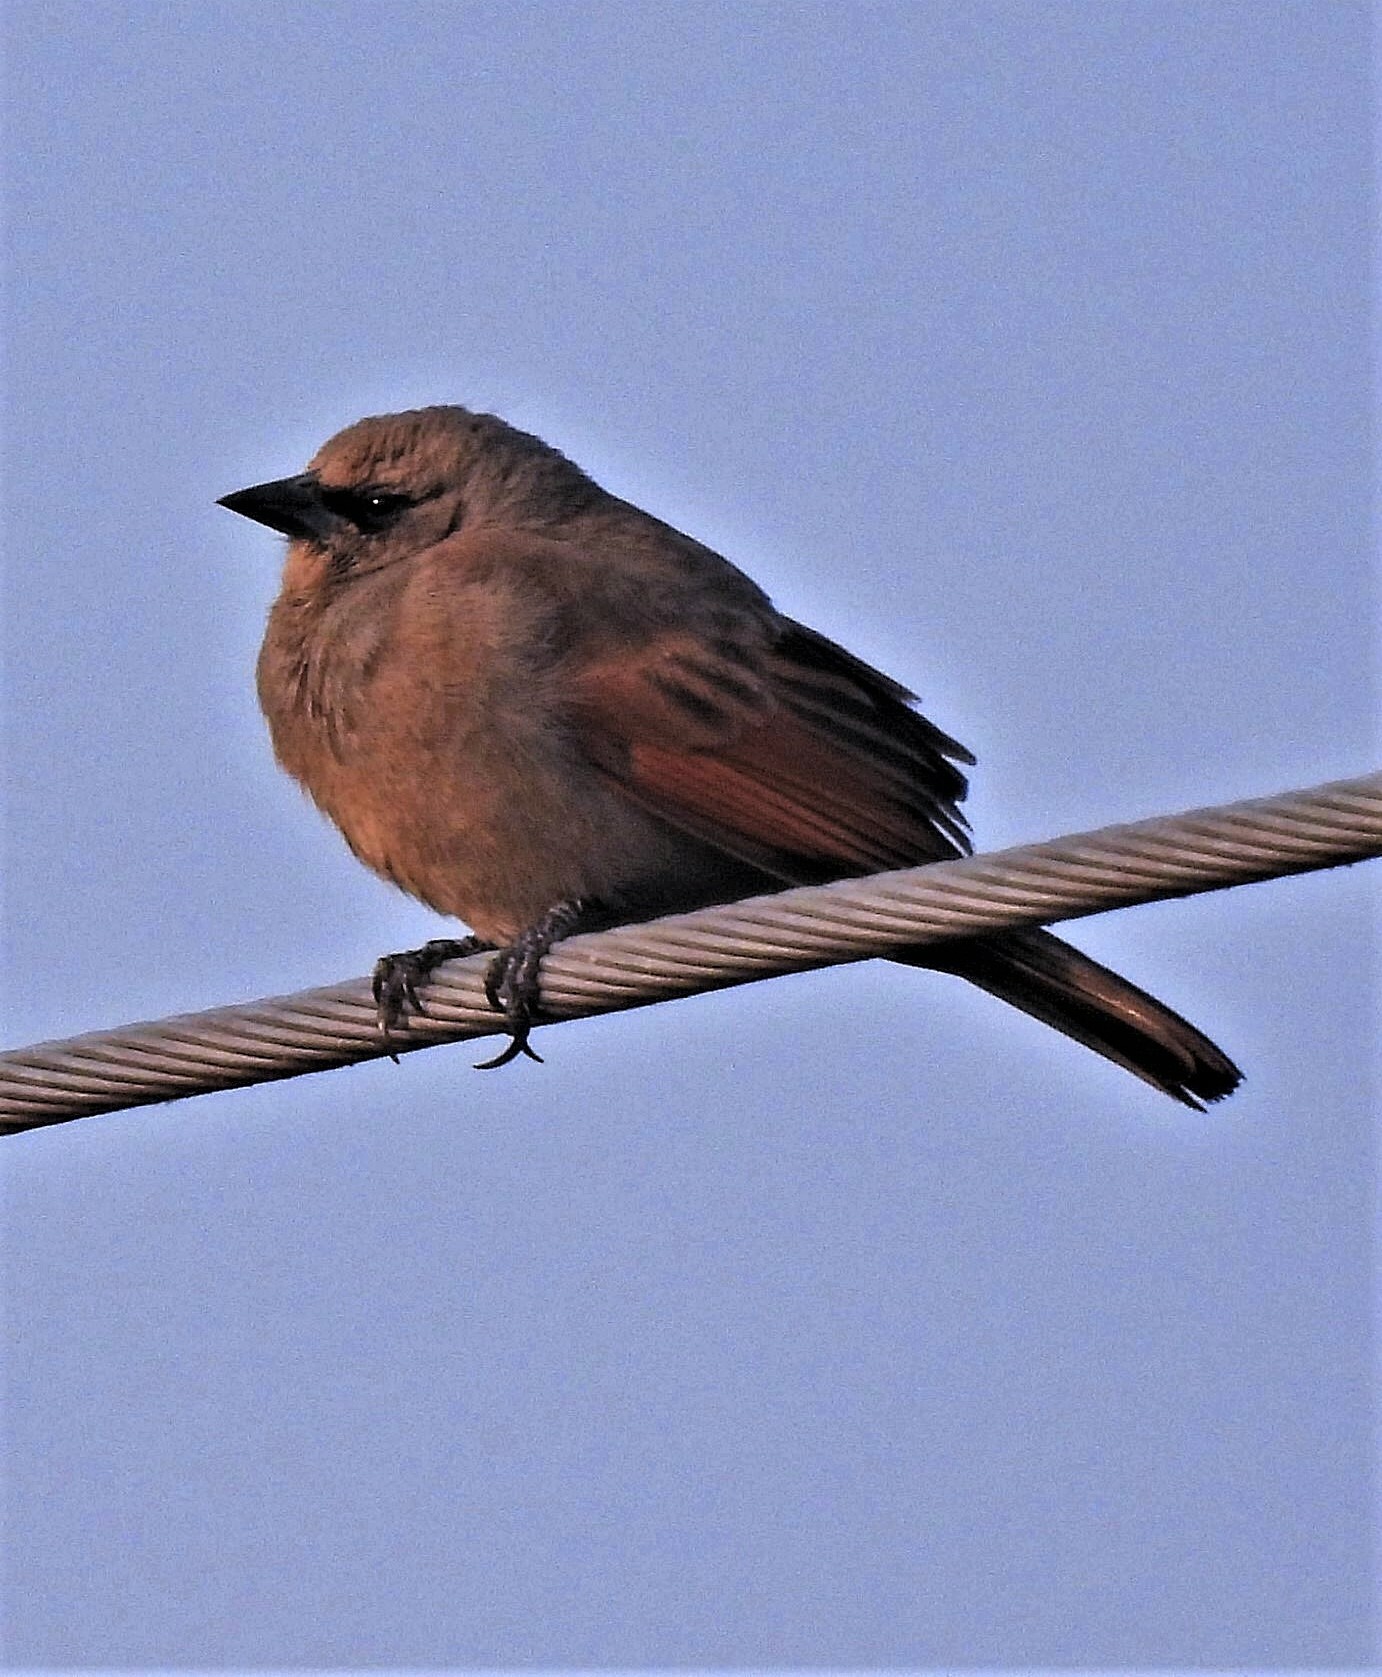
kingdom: Animalia
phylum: Chordata
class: Aves
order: Passeriformes
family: Icteridae
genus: Agelaioides
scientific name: Agelaioides badius
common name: Baywing
